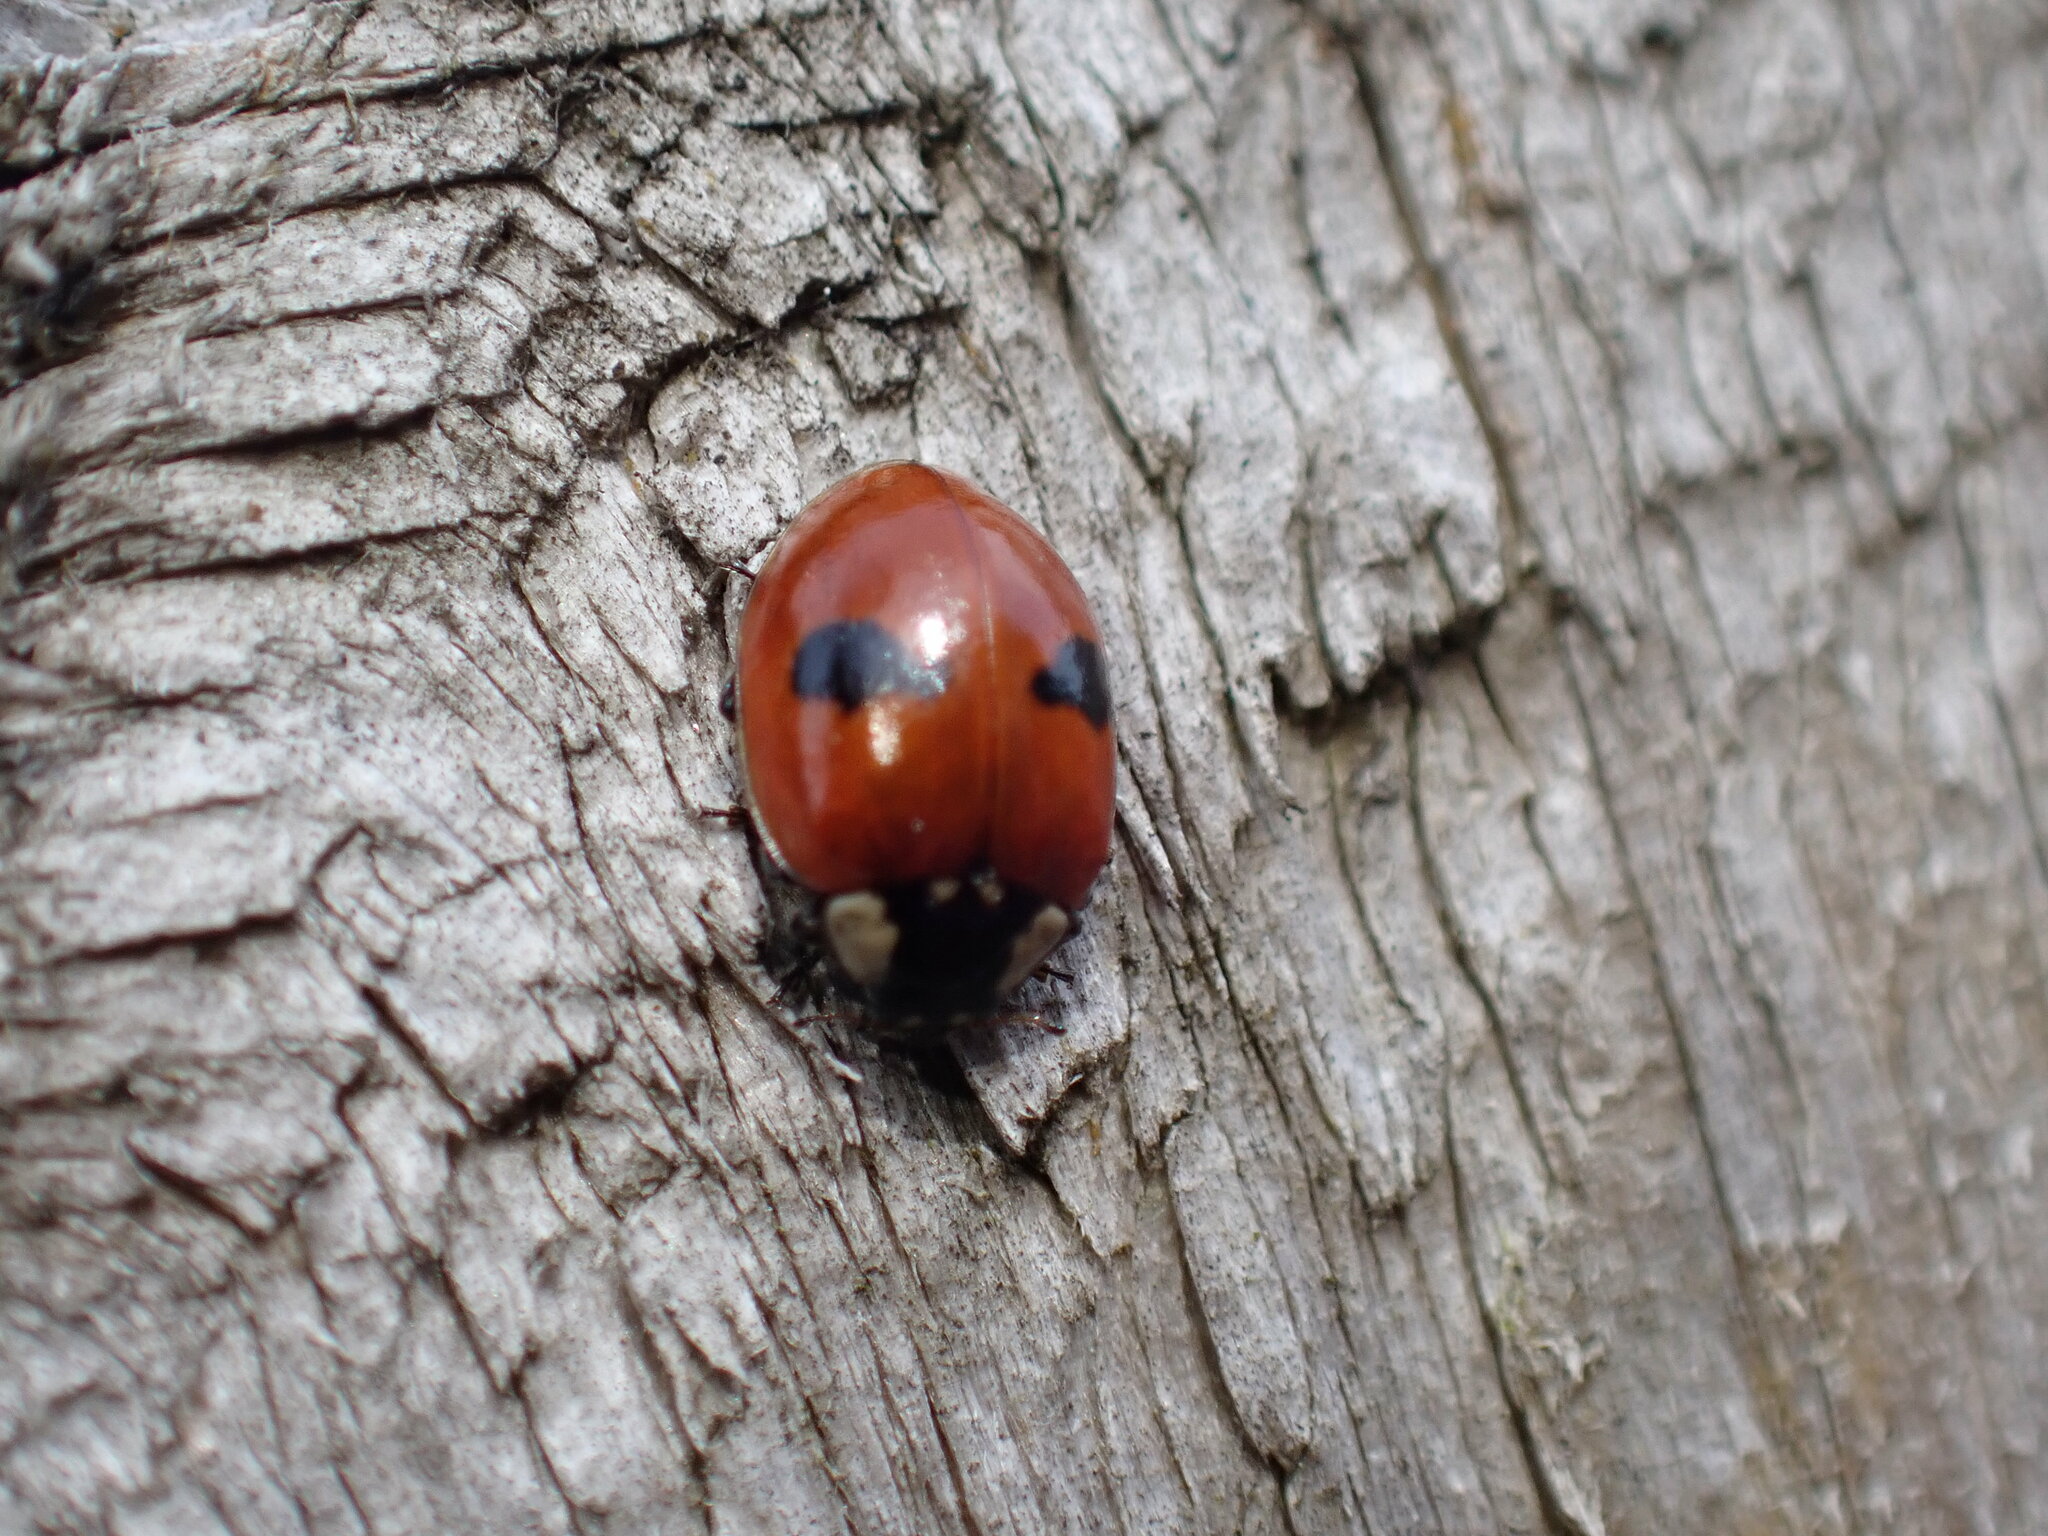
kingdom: Animalia
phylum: Arthropoda
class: Insecta
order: Coleoptera
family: Coccinellidae
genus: Adalia
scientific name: Adalia bipunctata
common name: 2-spot ladybird
